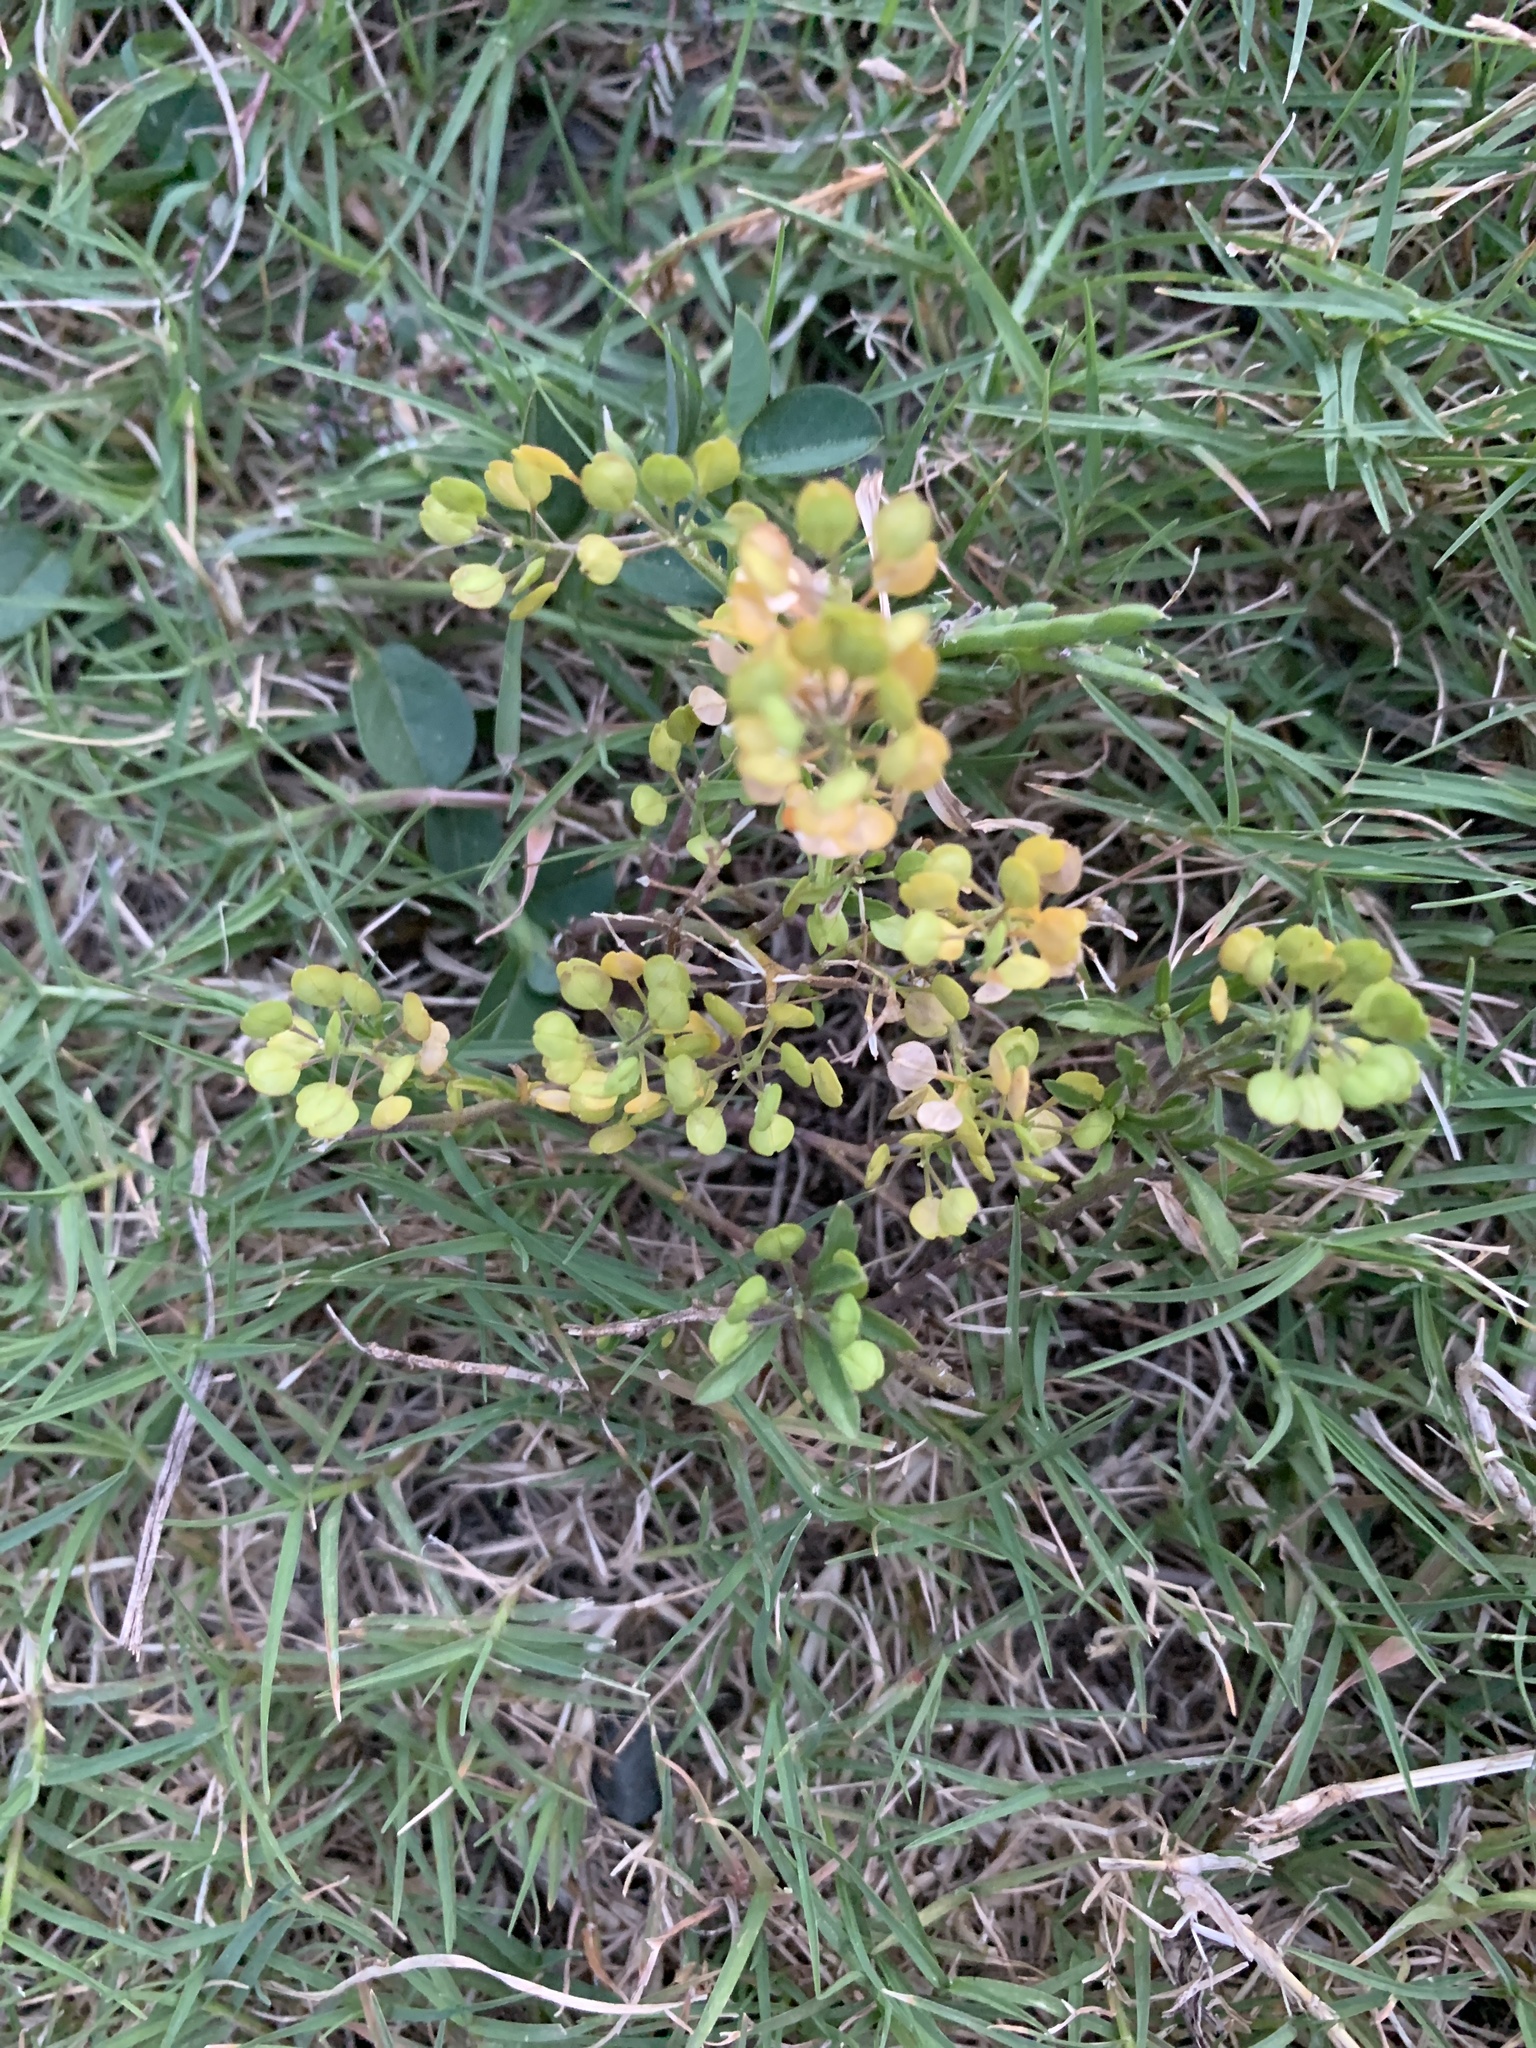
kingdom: Plantae
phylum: Tracheophyta
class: Magnoliopsida
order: Brassicales
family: Brassicaceae
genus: Lepidium
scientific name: Lepidium virginicum
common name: Least pepperwort
